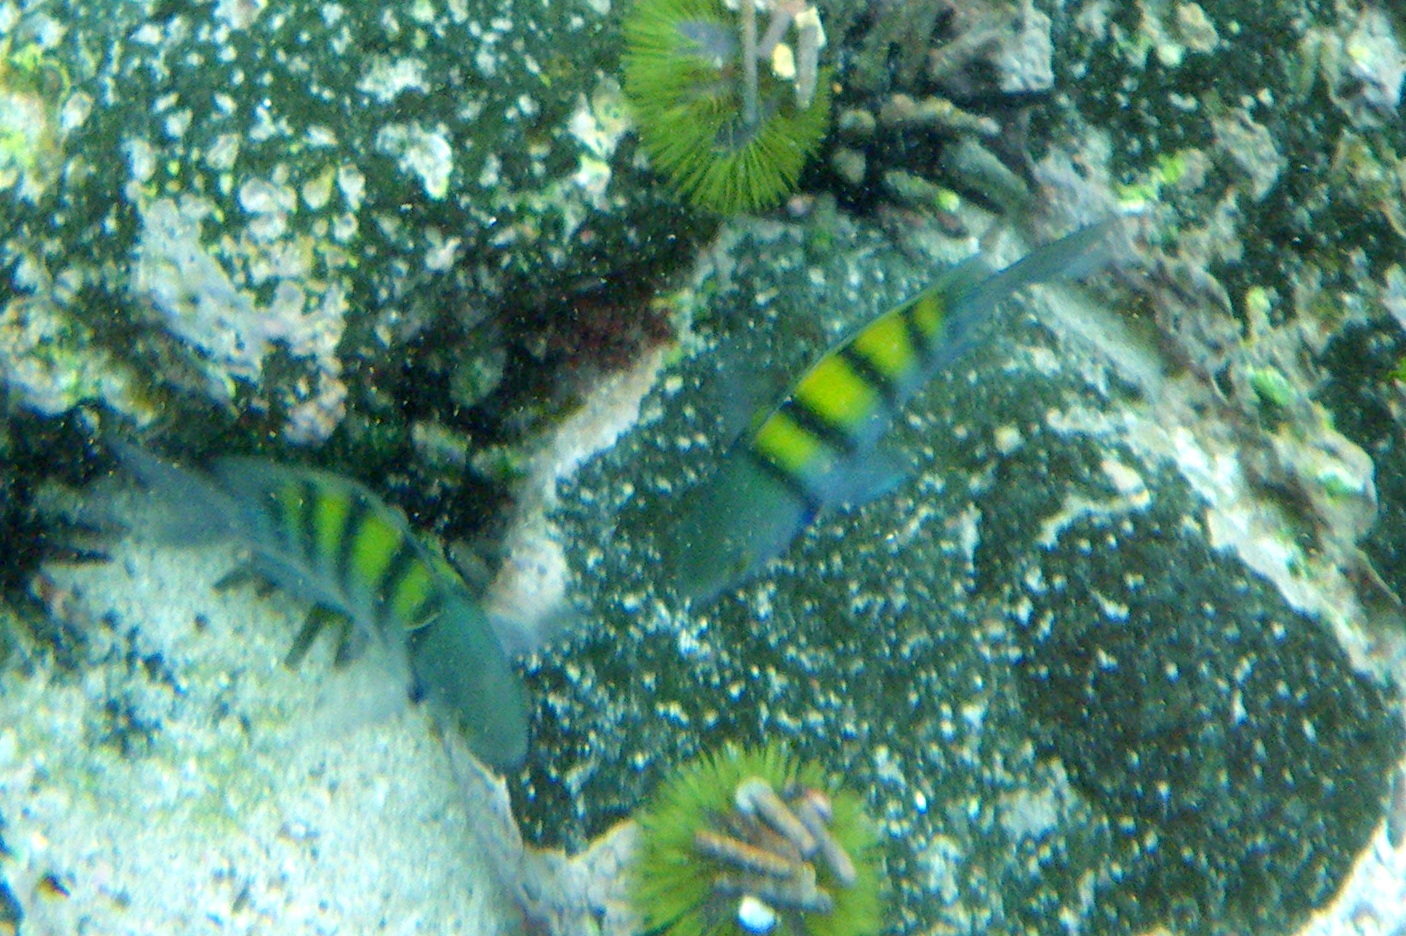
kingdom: Animalia
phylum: Chordata
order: Perciformes
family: Pomacentridae
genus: Abudefduf
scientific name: Abudefduf troschelii
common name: Panamic sergeant major
